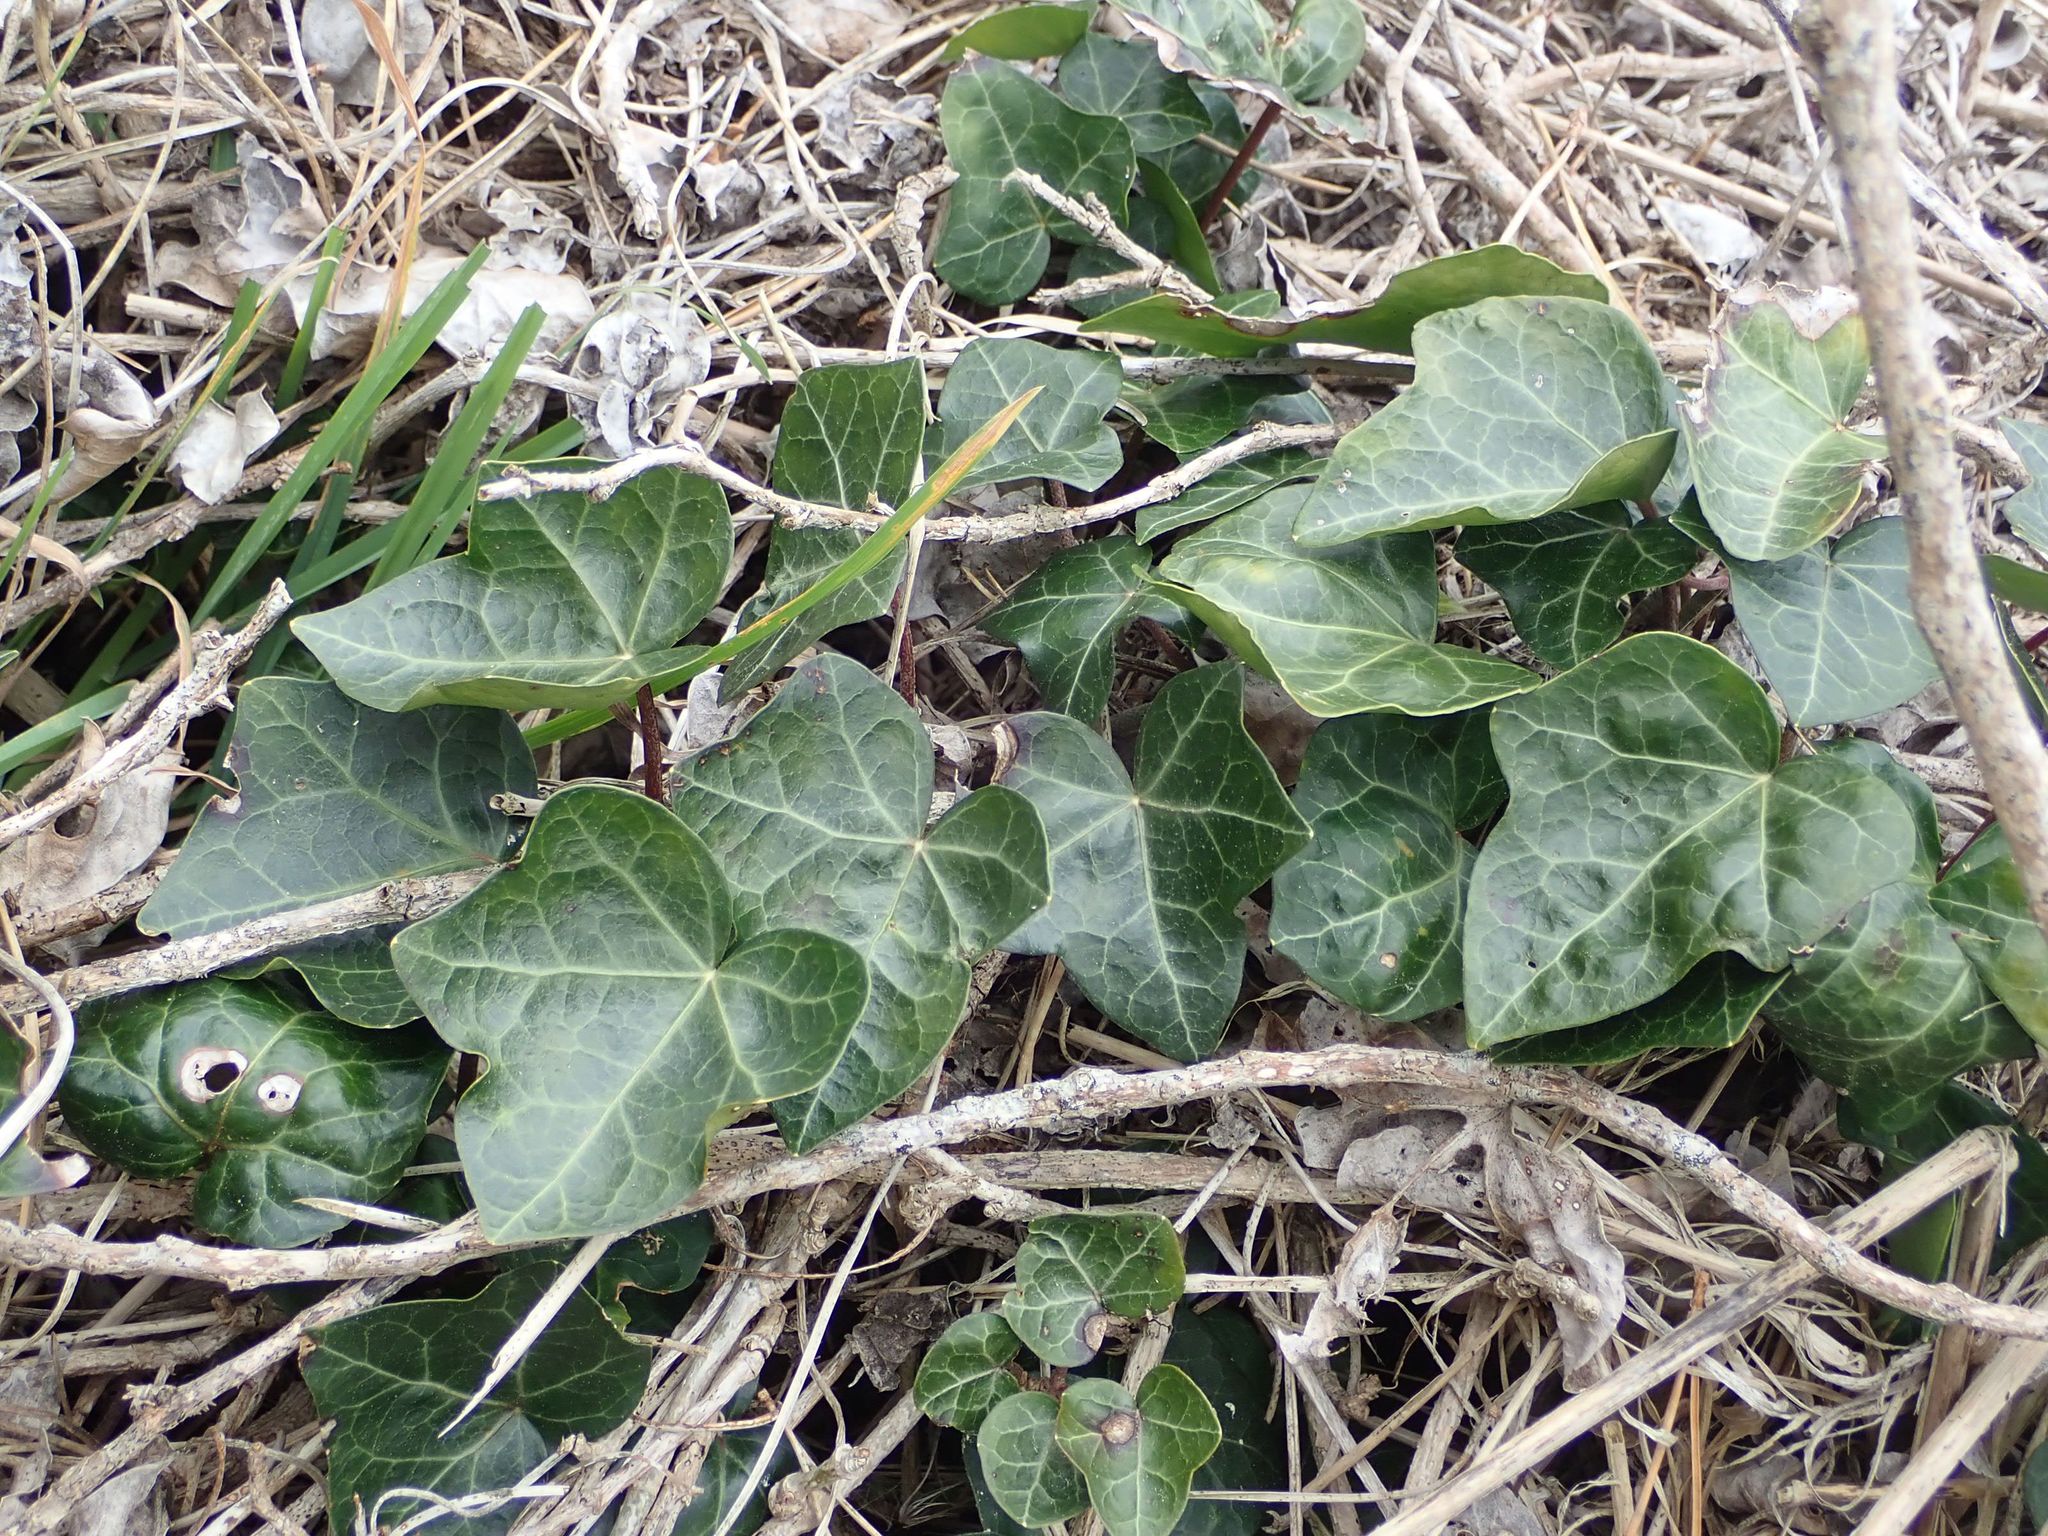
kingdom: Plantae
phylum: Tracheophyta
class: Magnoliopsida
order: Apiales
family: Araliaceae
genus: Hedera
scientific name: Hedera helix
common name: Ivy
